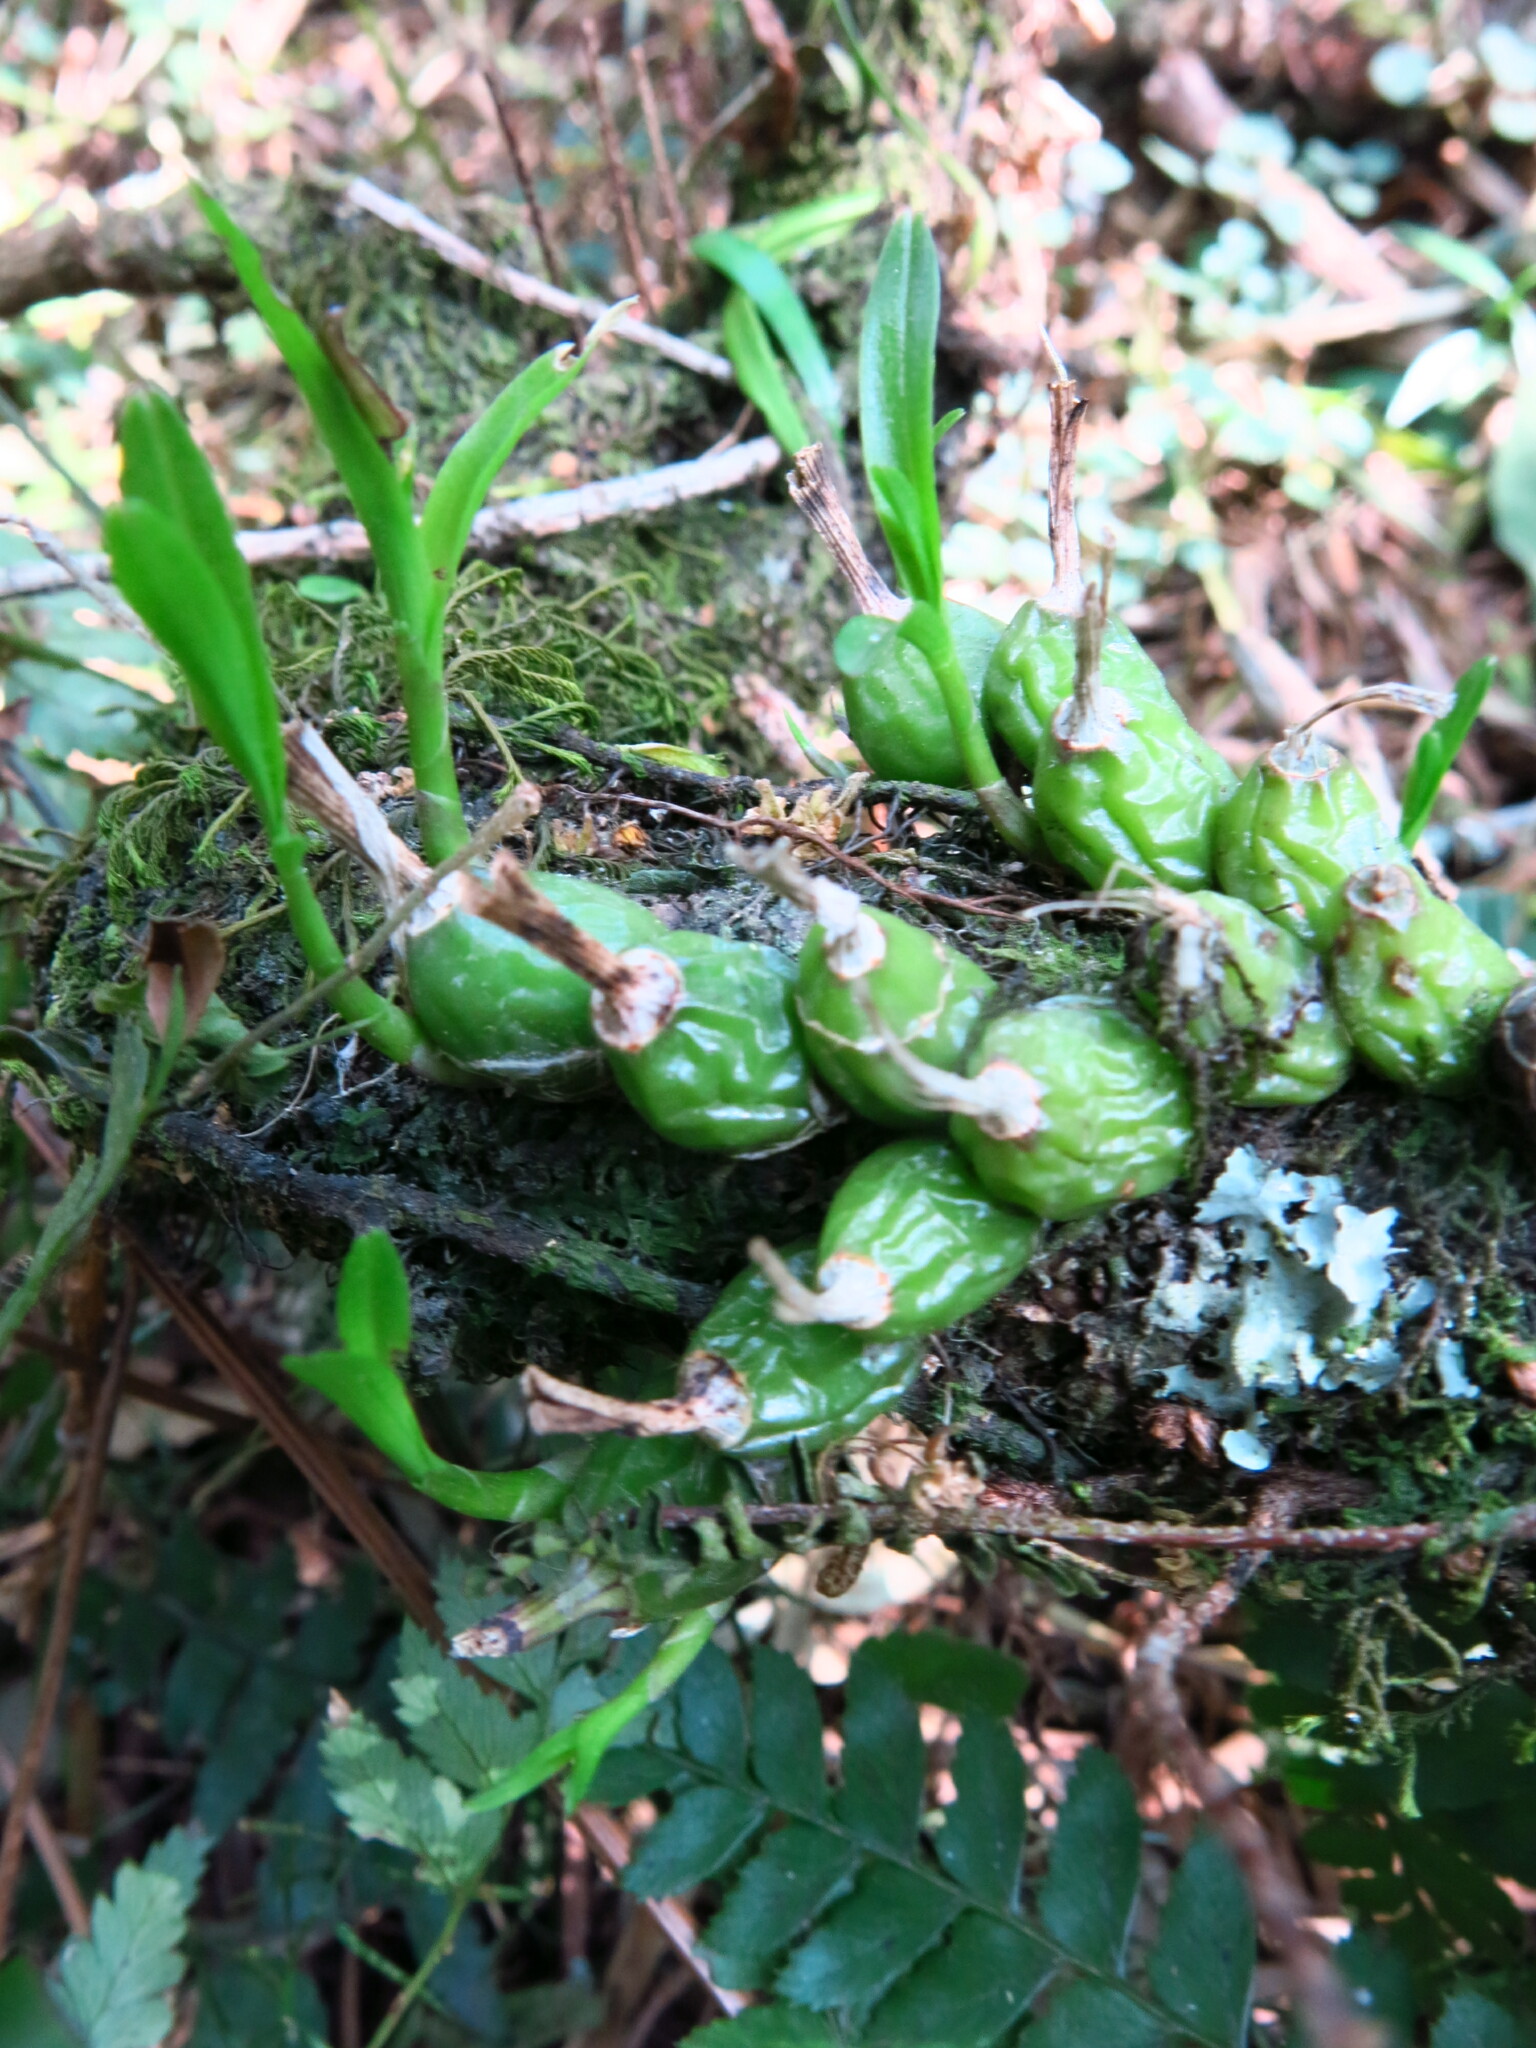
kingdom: Plantae
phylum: Tracheophyta
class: Liliopsida
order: Asparagales
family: Orchidaceae
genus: Polystachya
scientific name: Polystachya ottoniana
